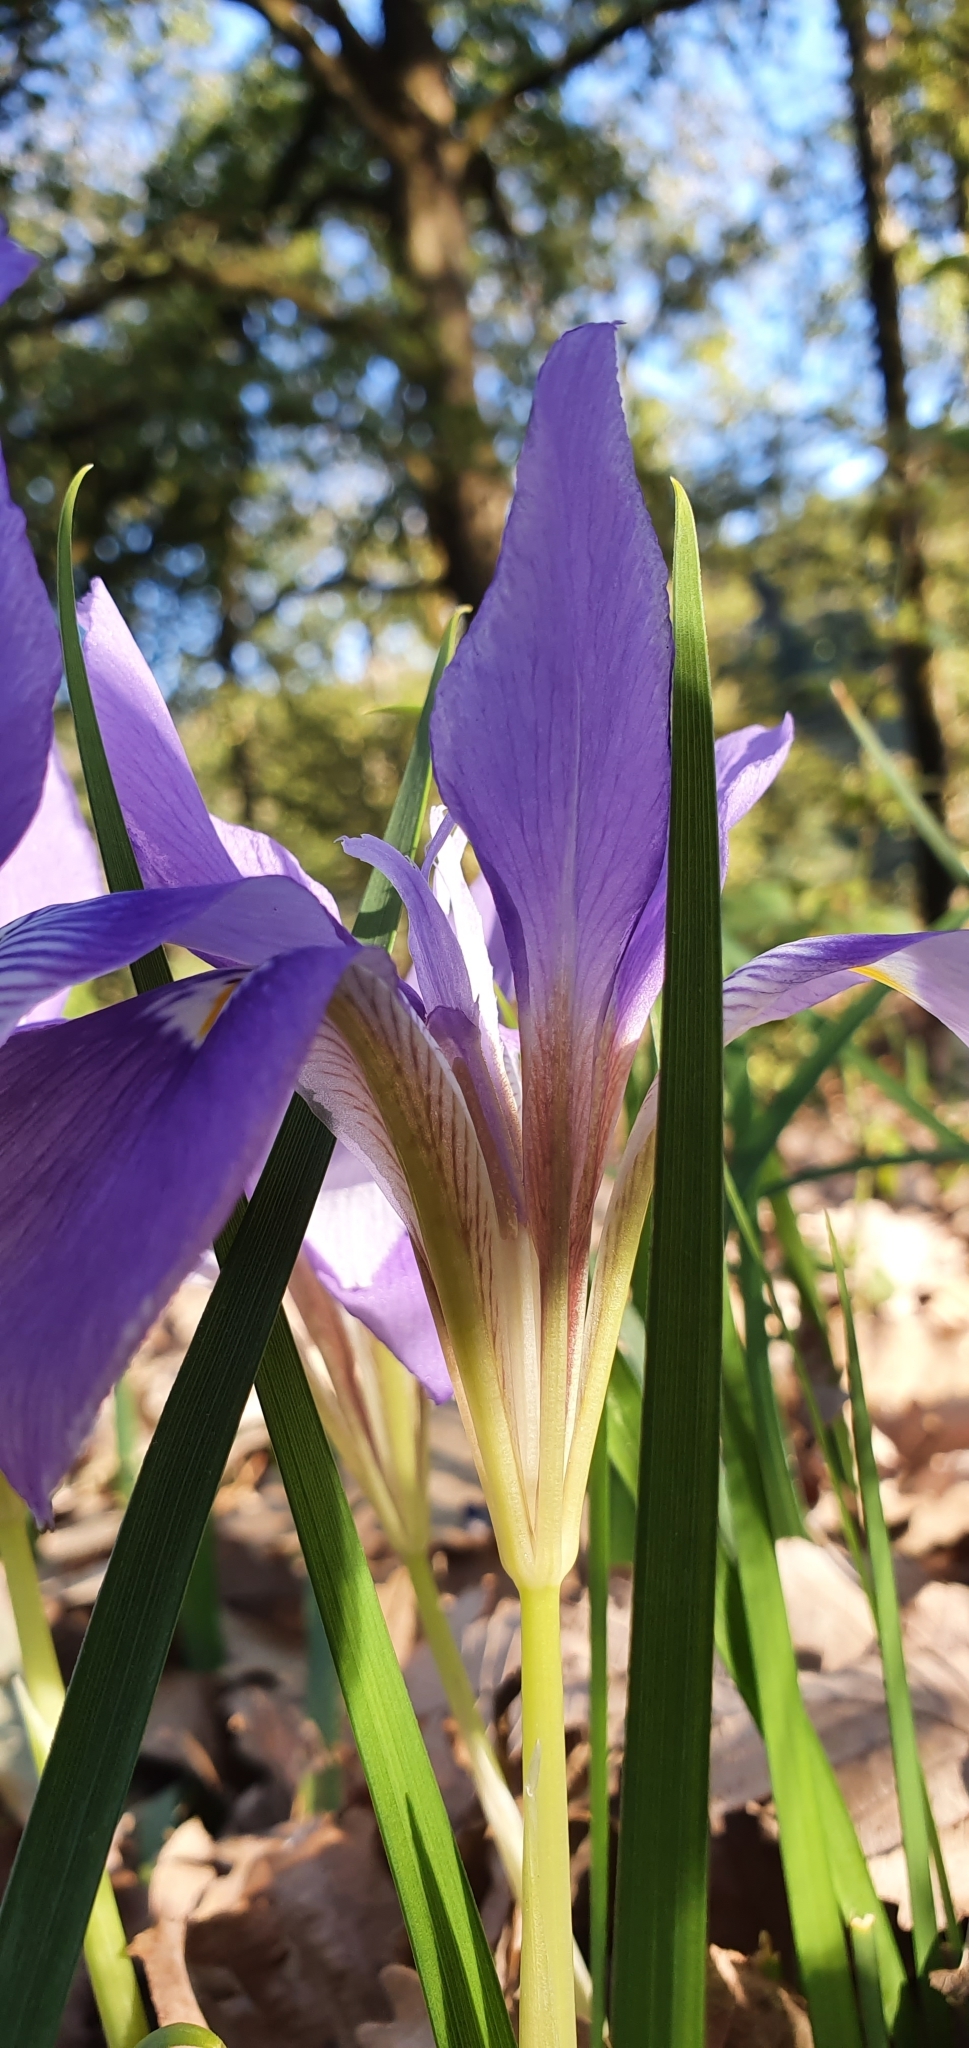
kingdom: Plantae
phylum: Tracheophyta
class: Liliopsida
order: Asparagales
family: Iridaceae
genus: Iris
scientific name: Iris unguicularis
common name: Algerian iris
